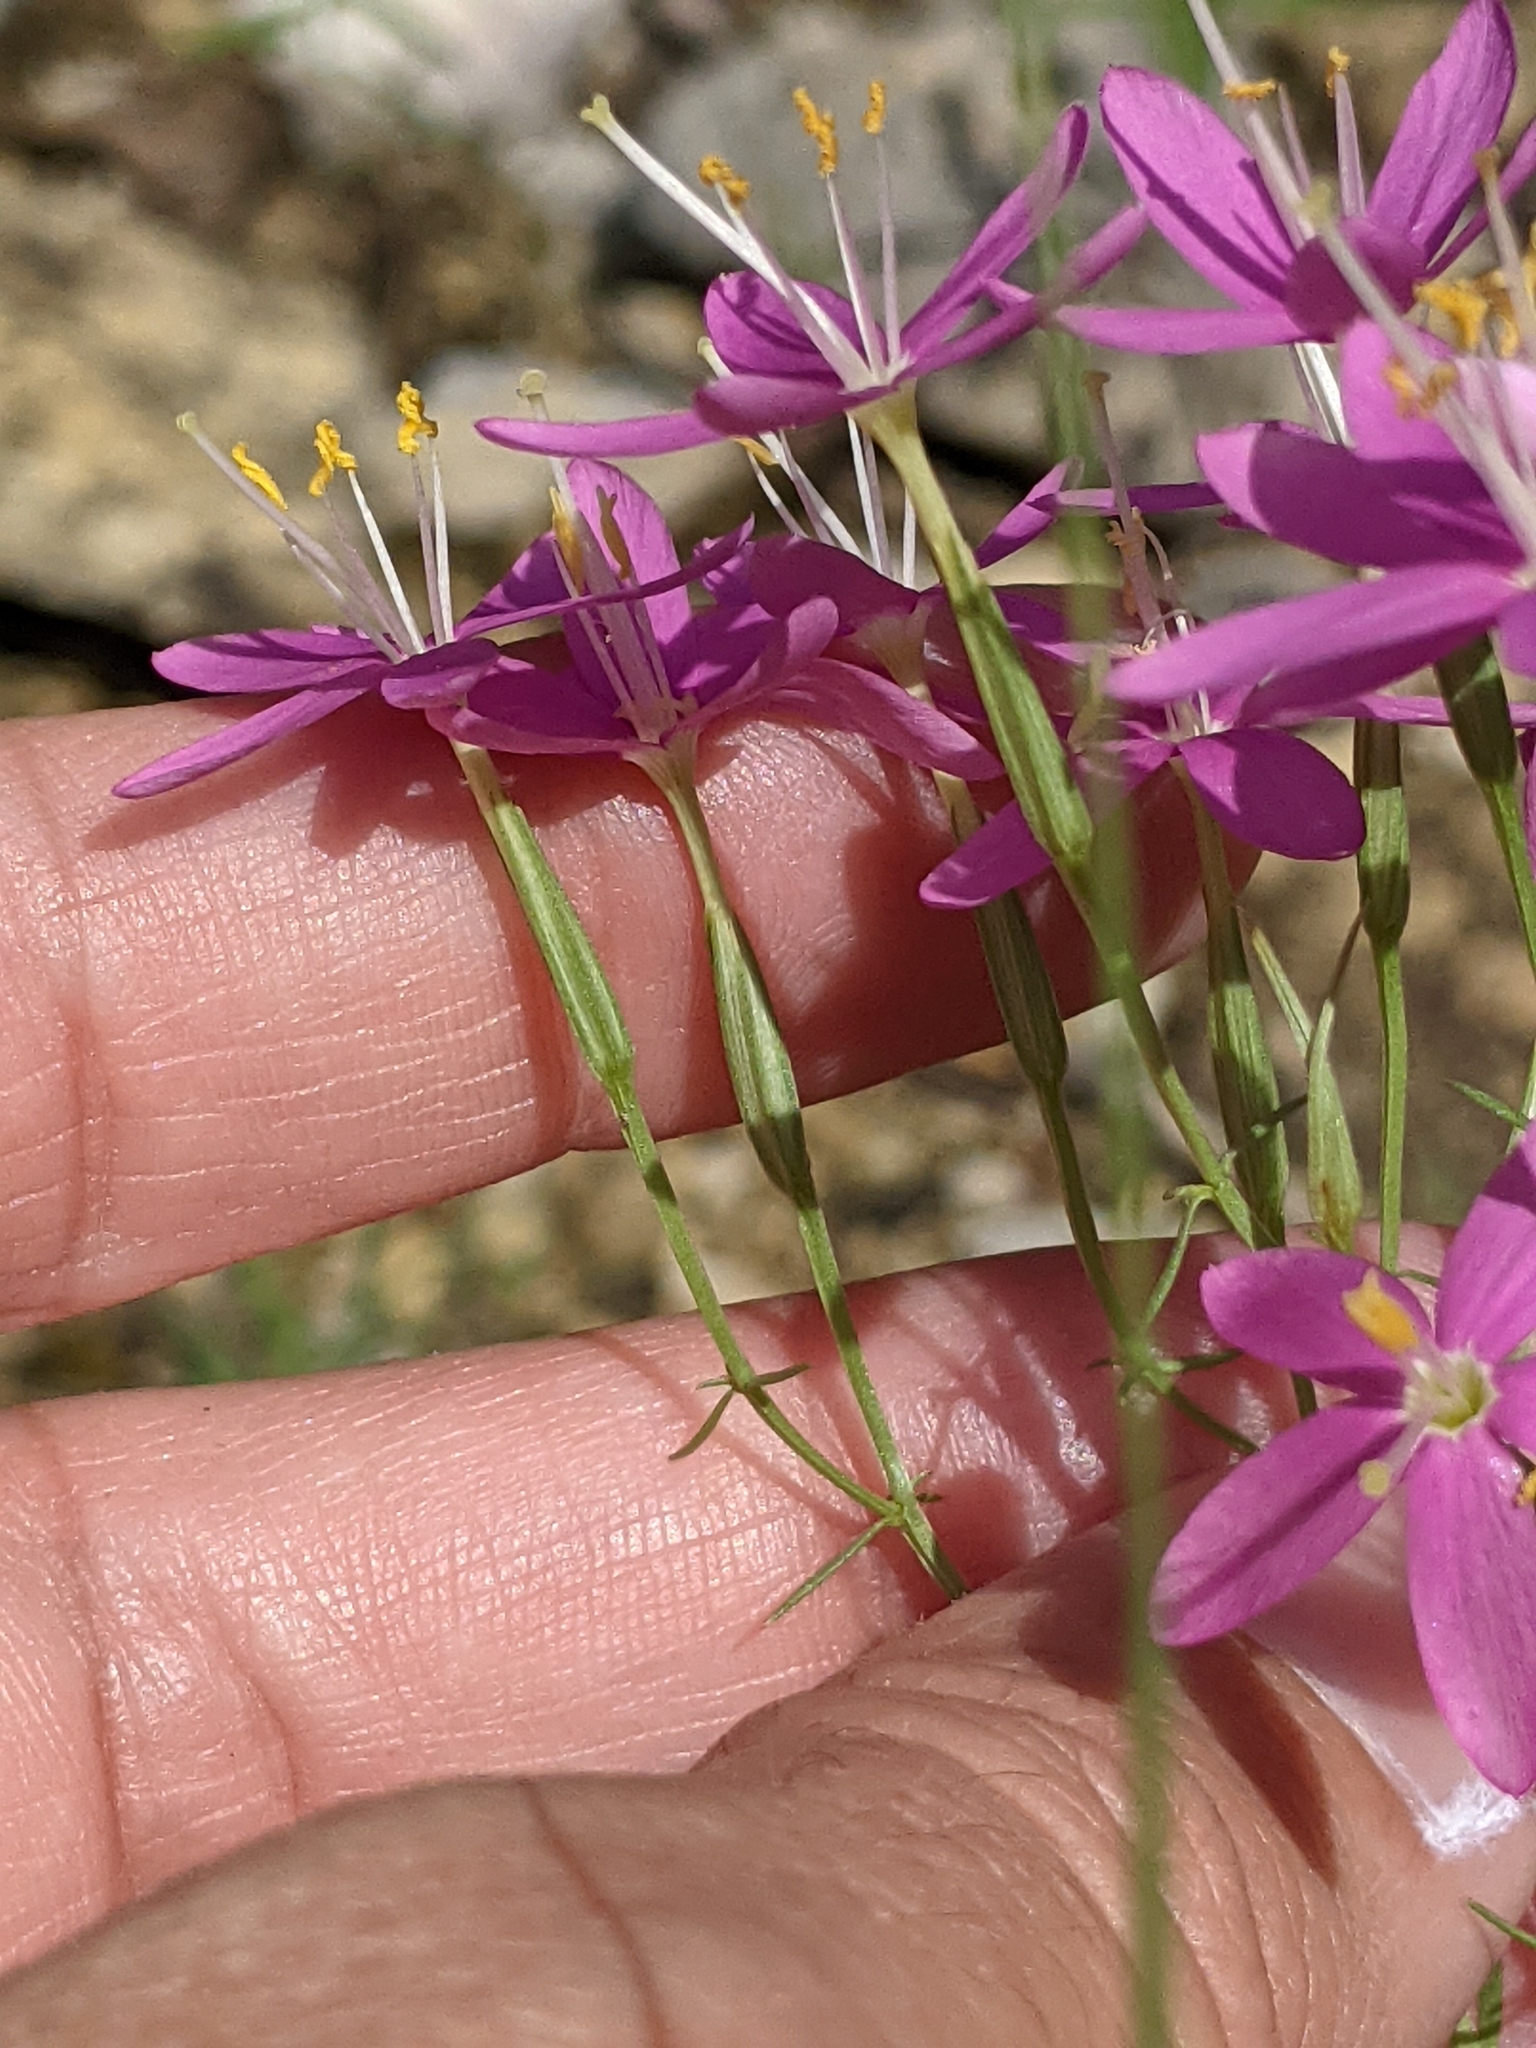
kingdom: Plantae
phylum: Tracheophyta
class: Magnoliopsida
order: Gentianales
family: Gentianaceae
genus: Zeltnera
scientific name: Zeltnera beyrichii
